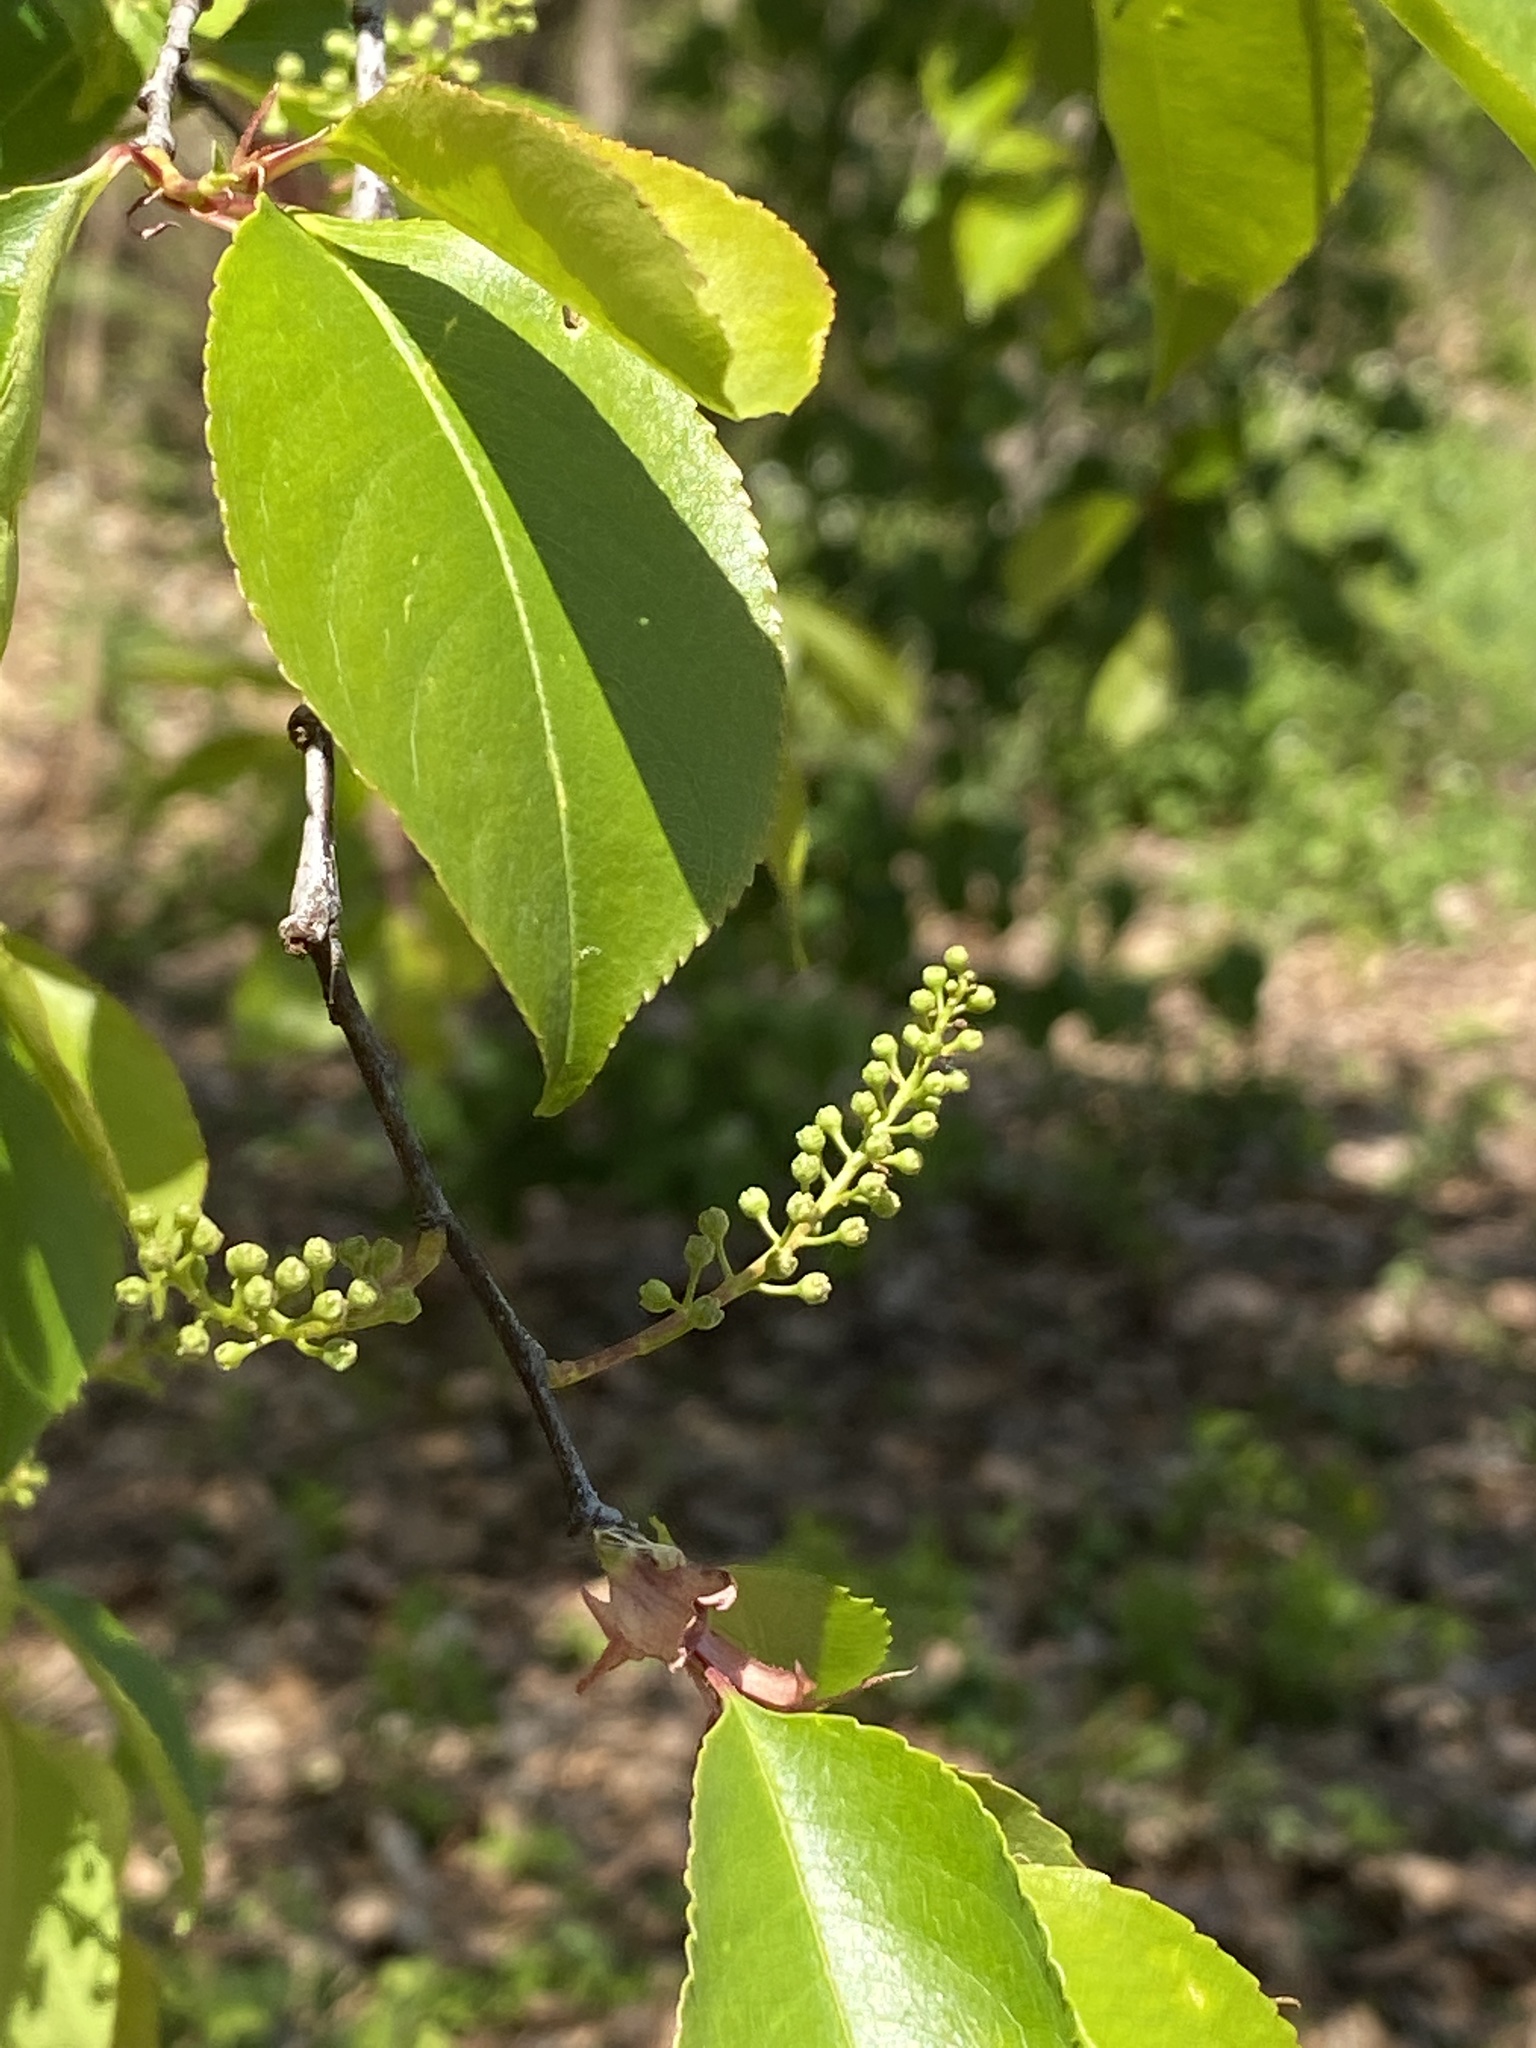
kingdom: Plantae
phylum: Tracheophyta
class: Magnoliopsida
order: Rosales
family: Rosaceae
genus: Prunus
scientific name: Prunus serotina
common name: Black cherry
